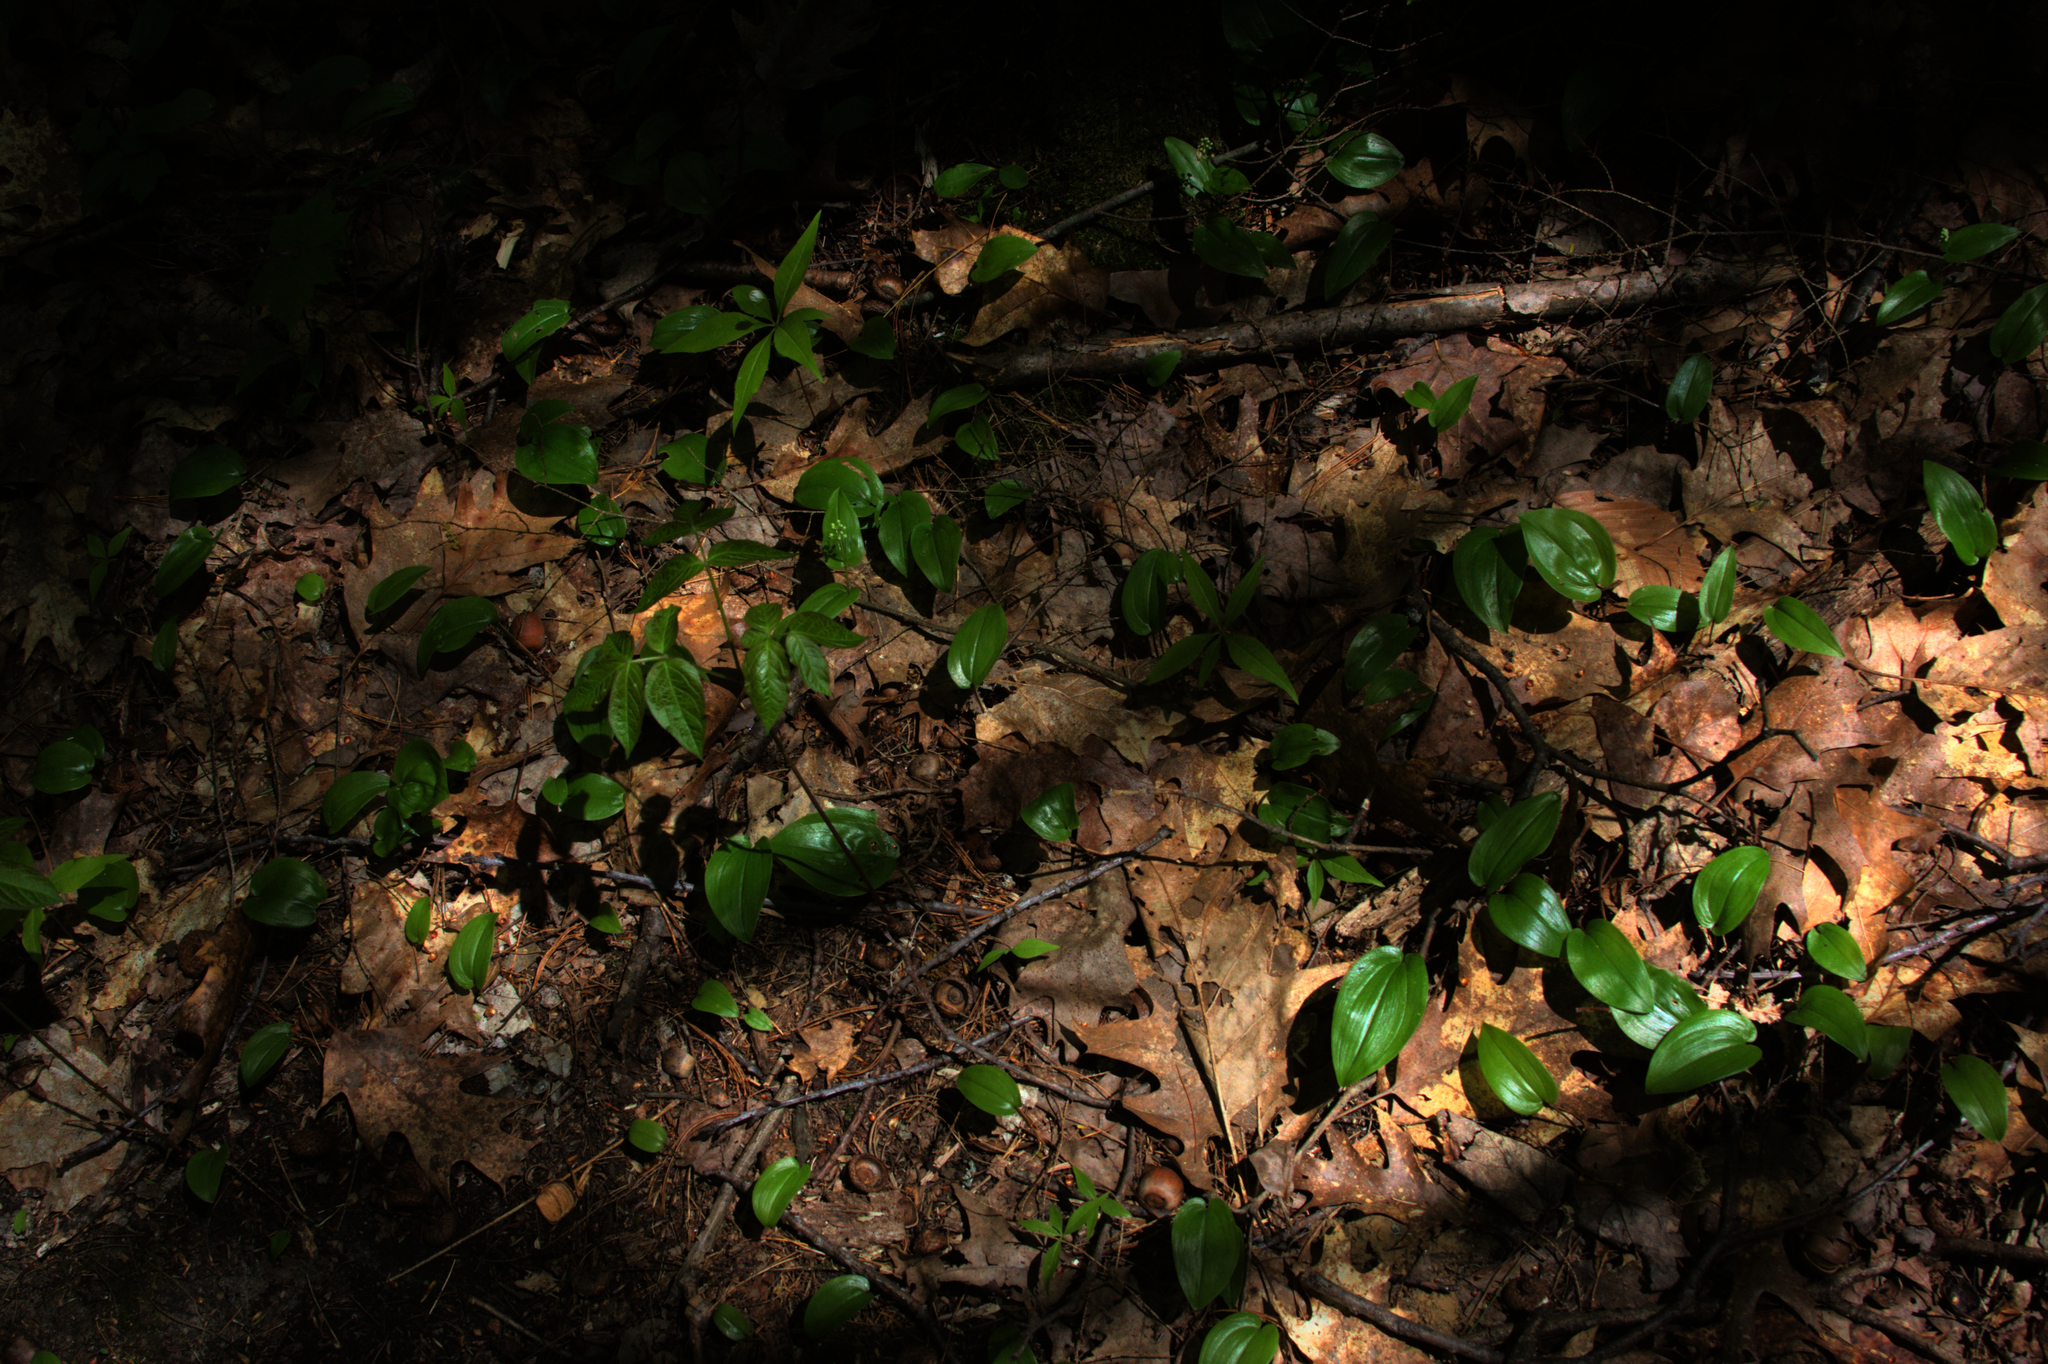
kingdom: Plantae
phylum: Tracheophyta
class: Liliopsida
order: Asparagales
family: Asparagaceae
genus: Maianthemum
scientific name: Maianthemum canadense
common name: False lily-of-the-valley
